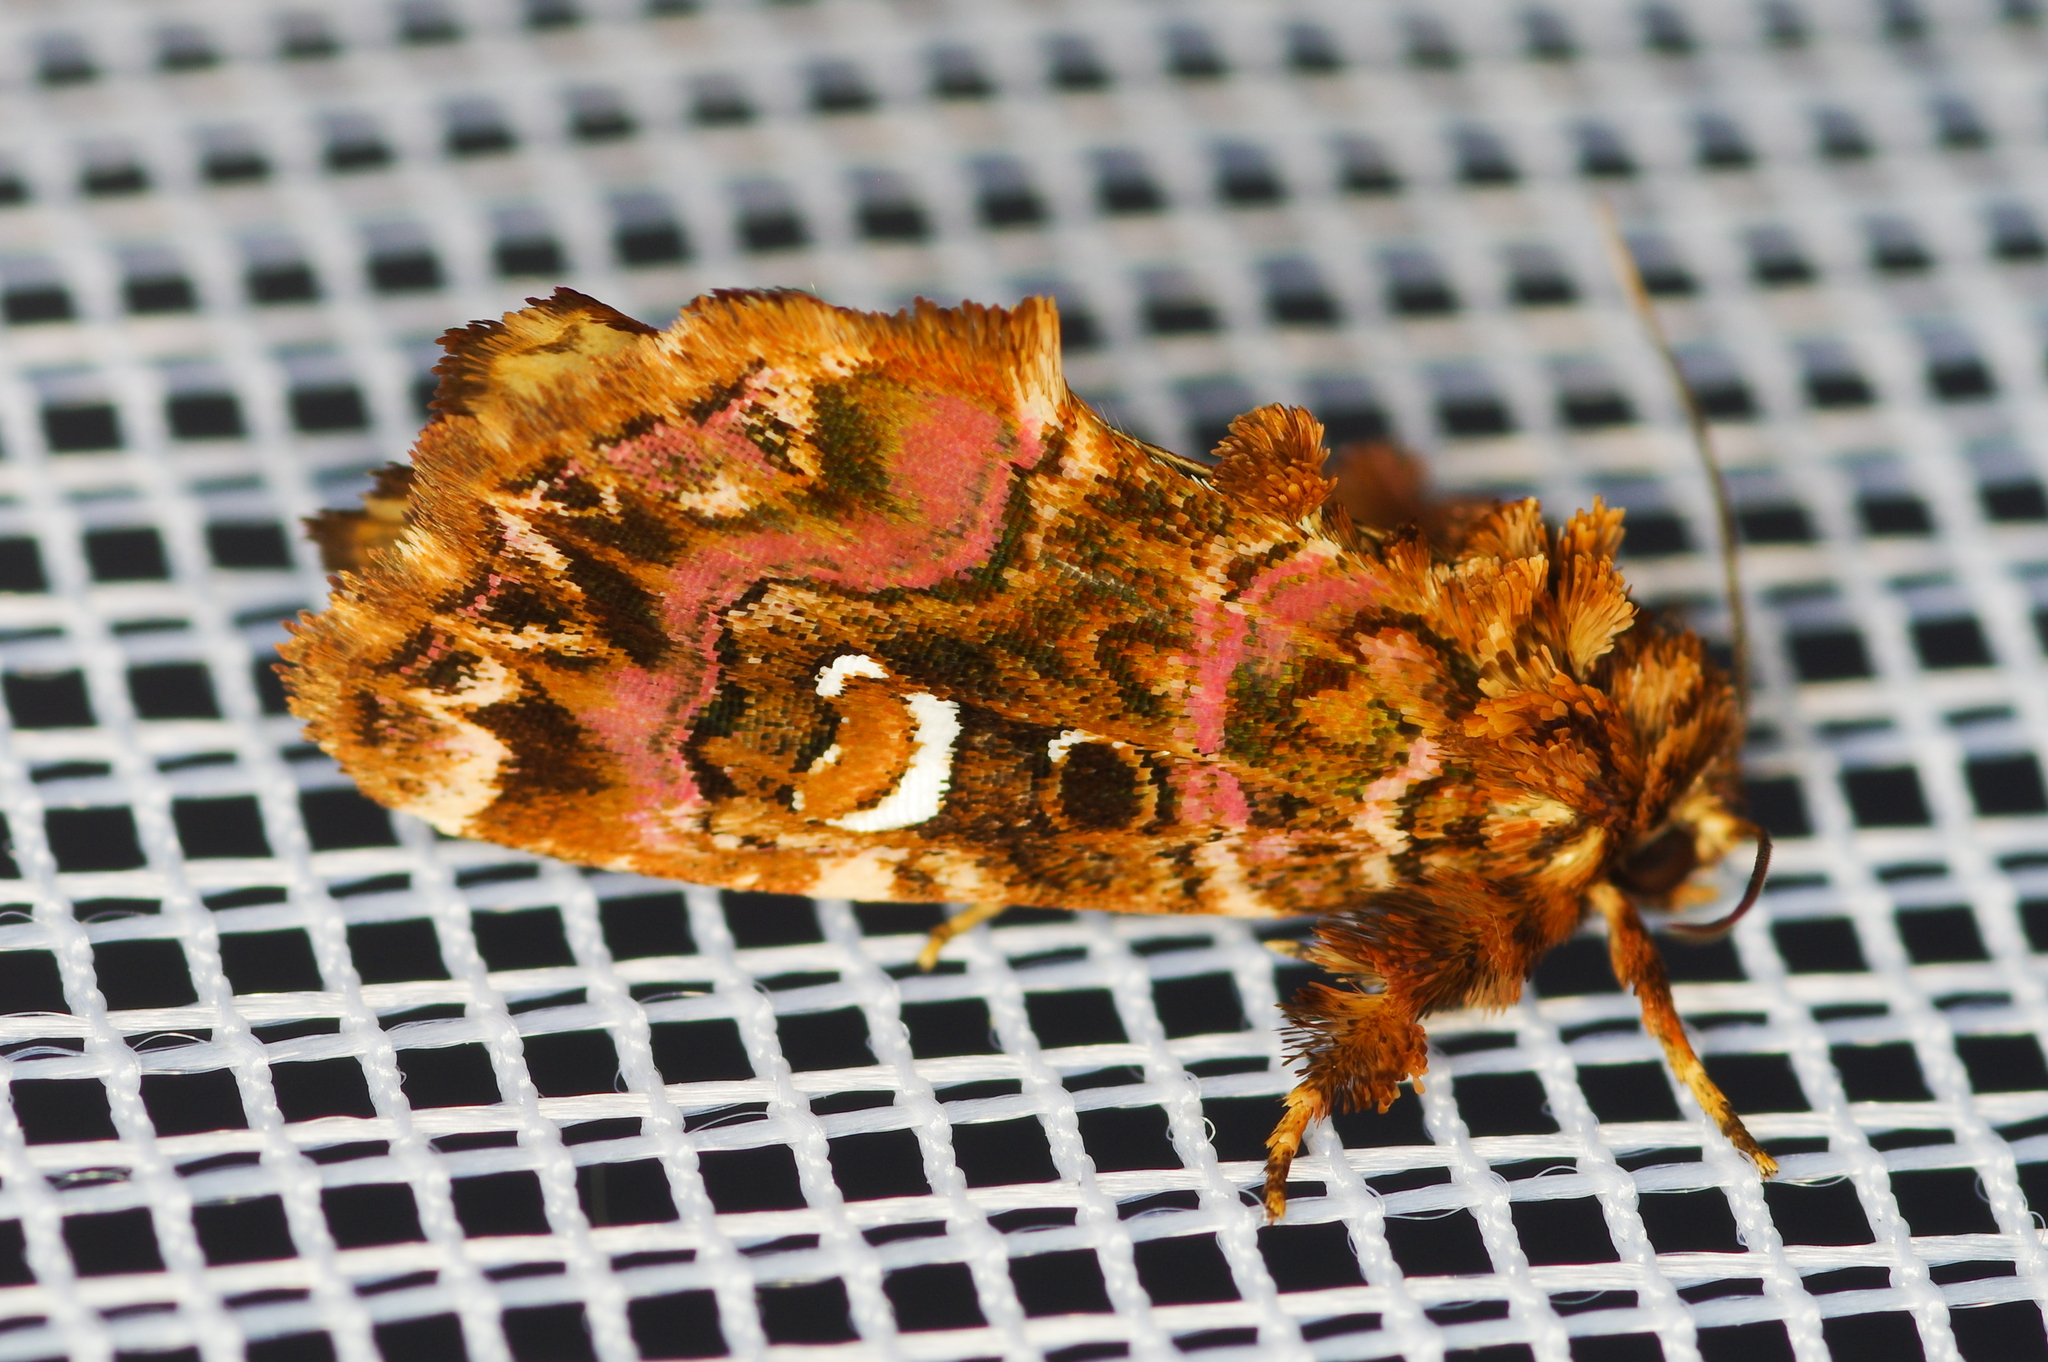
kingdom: Animalia
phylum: Arthropoda
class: Insecta
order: Lepidoptera
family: Noctuidae
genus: Callopistria
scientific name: Callopistria mollissima
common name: Pink-shaded fern moth
